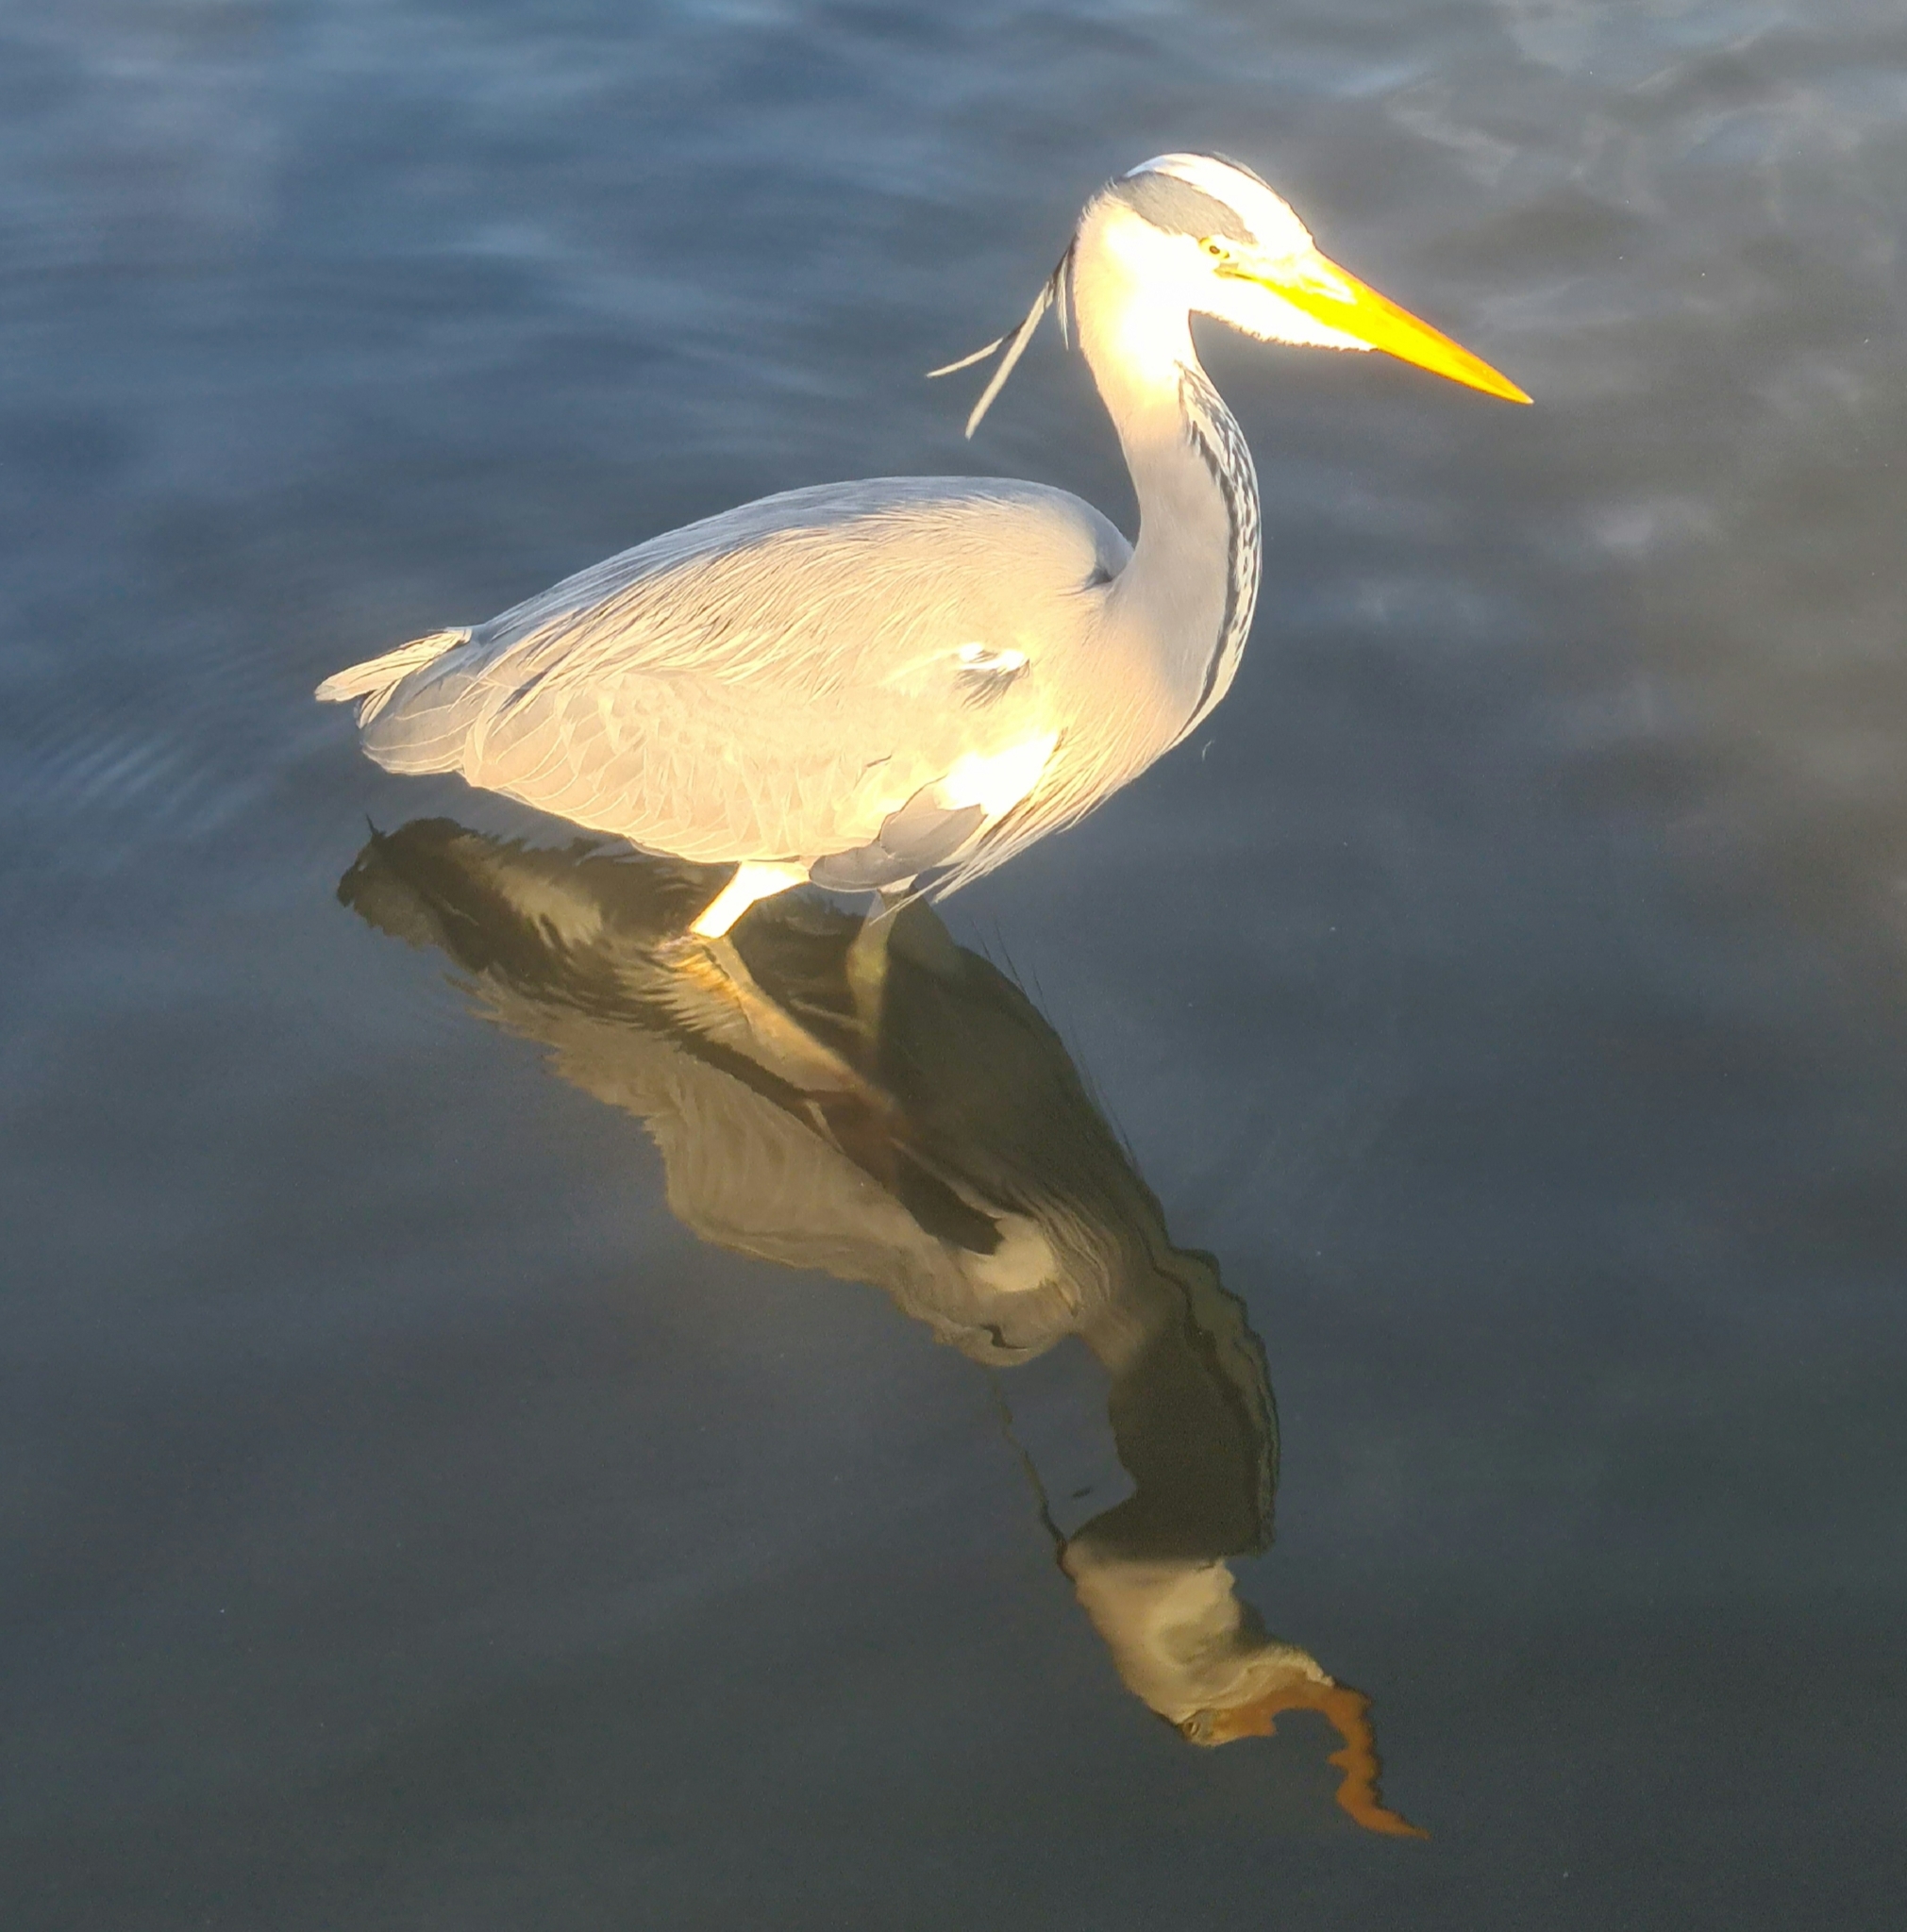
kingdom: Animalia
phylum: Chordata
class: Aves
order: Pelecaniformes
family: Ardeidae
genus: Ardea
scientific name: Ardea cinerea
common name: Grey heron
